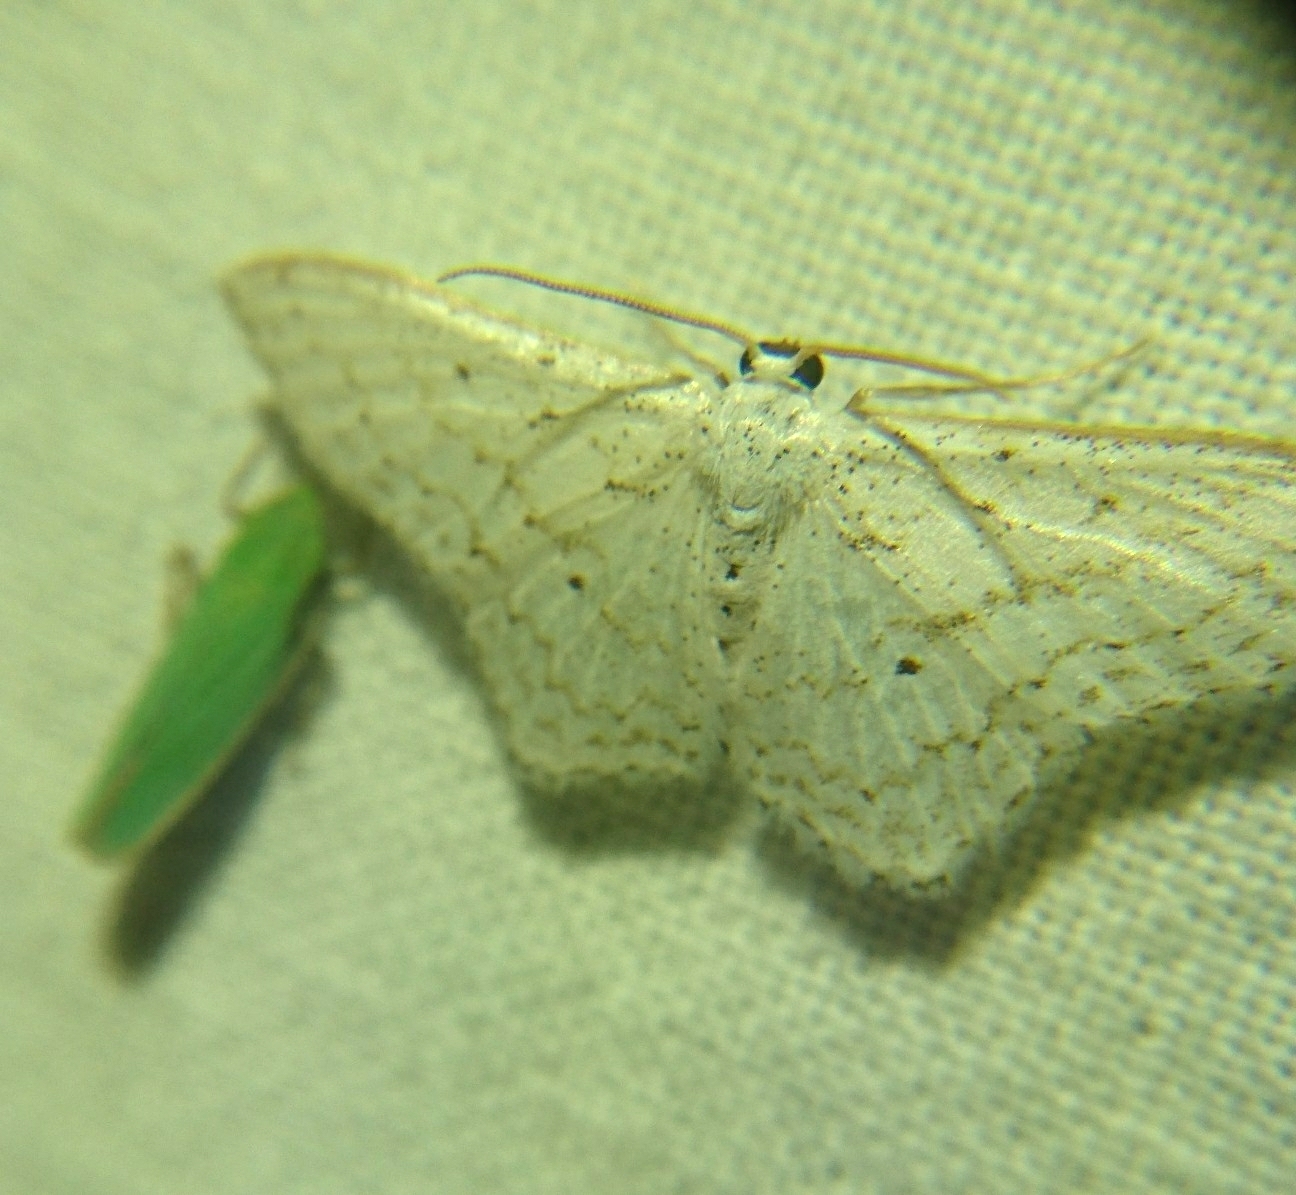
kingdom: Animalia
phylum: Arthropoda
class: Insecta
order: Lepidoptera
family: Geometridae
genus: Idaea
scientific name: Idaea tacturata
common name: Dot-lined wave
